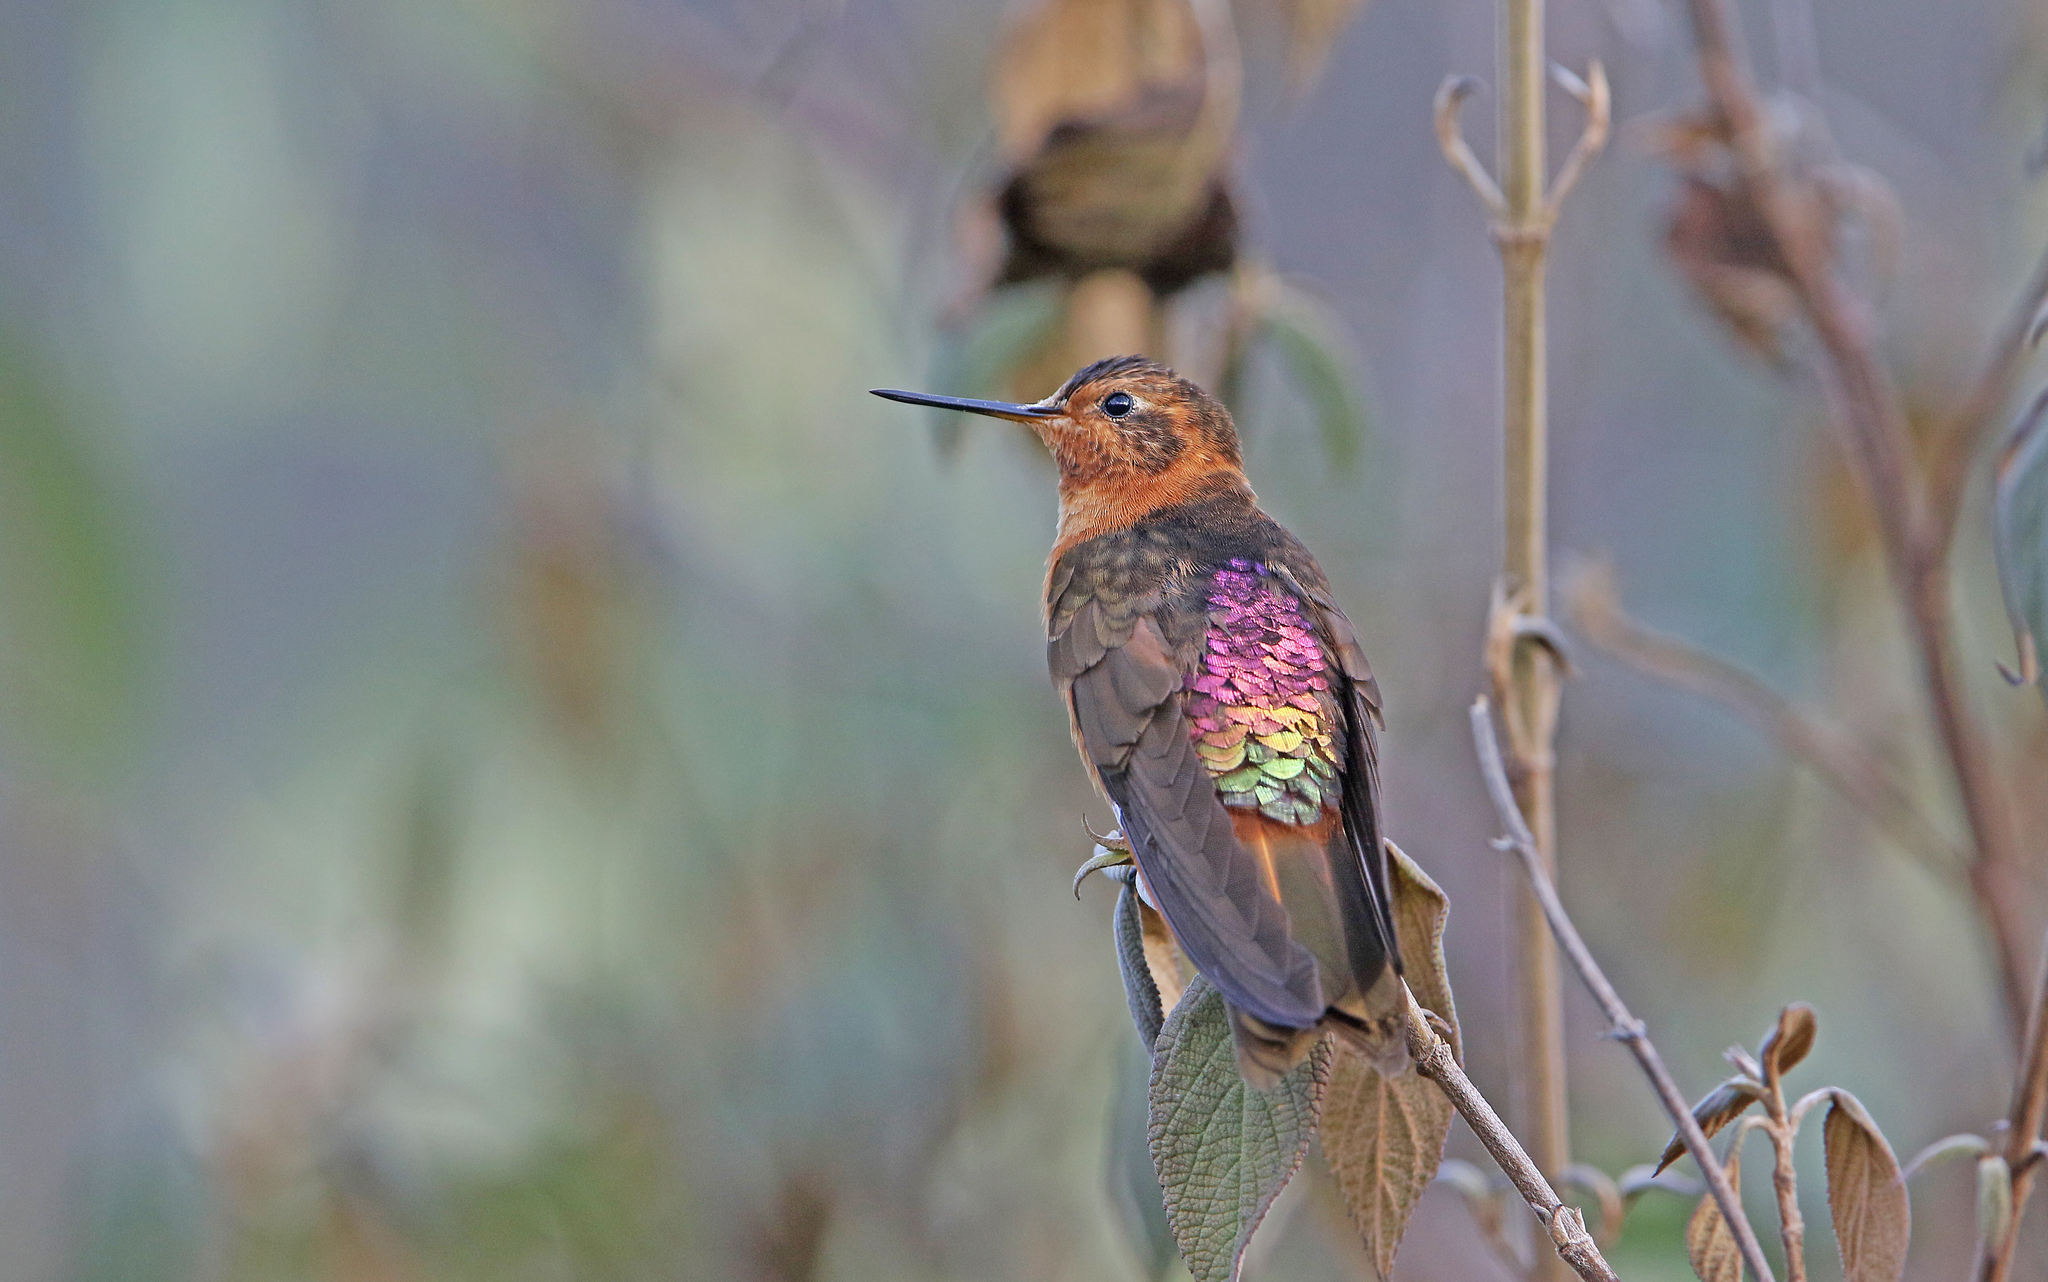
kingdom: Animalia
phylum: Chordata
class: Aves
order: Apodiformes
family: Trochilidae
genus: Aglaeactis
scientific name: Aglaeactis cupripennis
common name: Shining sunbeam
